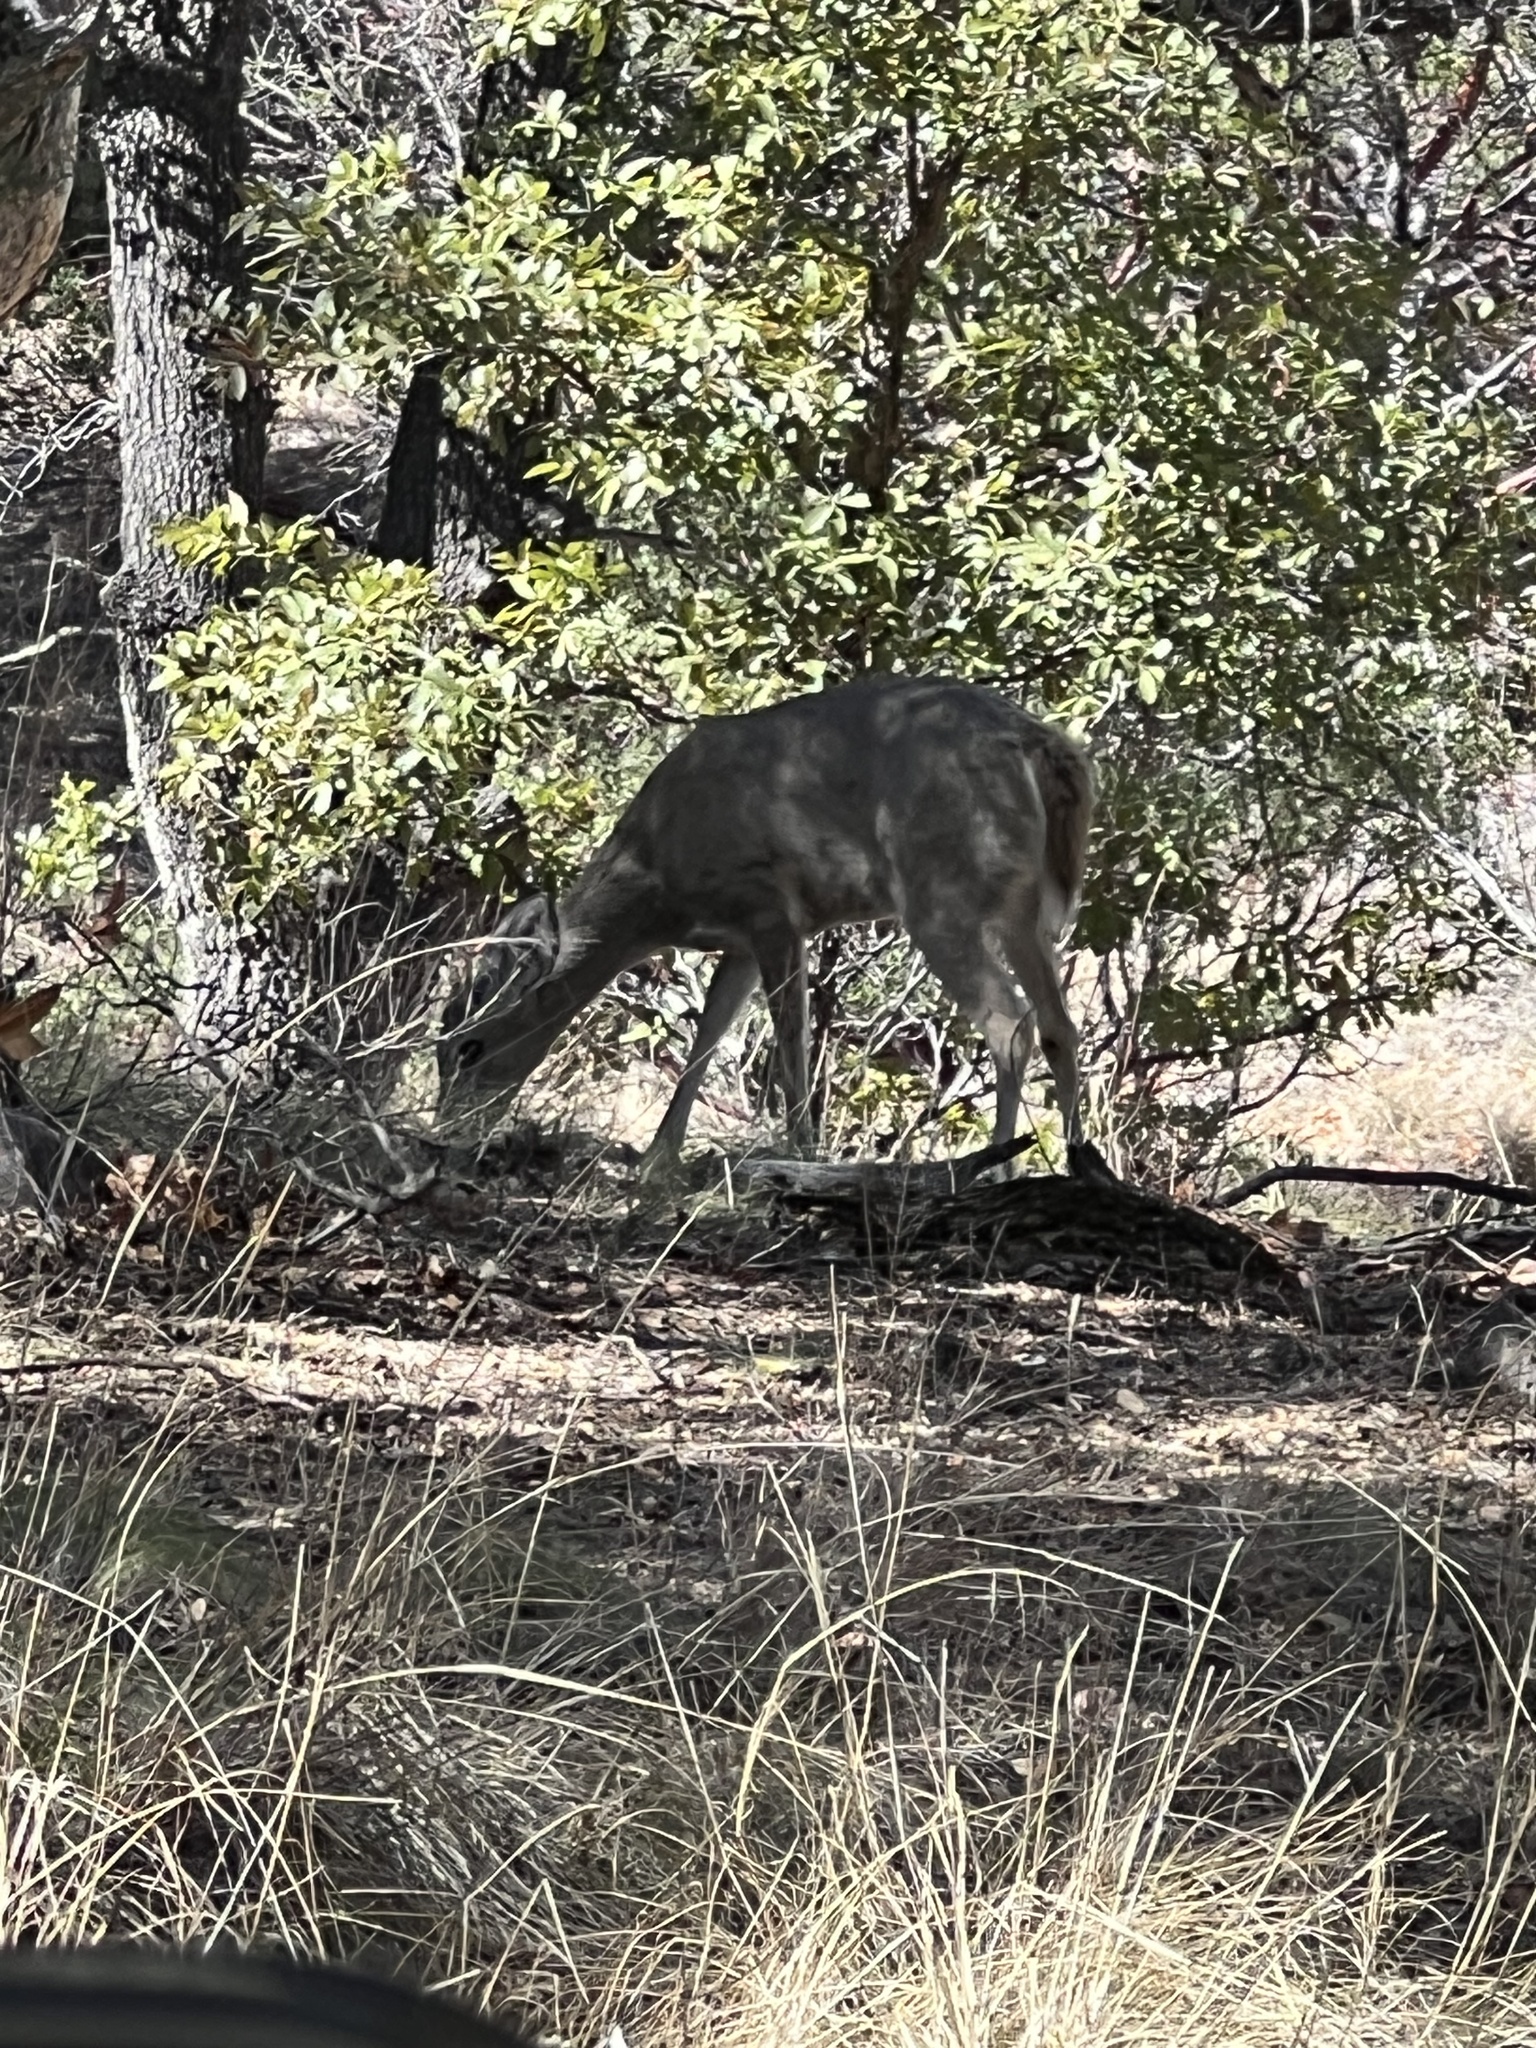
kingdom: Animalia
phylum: Chordata
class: Mammalia
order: Artiodactyla
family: Cervidae
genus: Odocoileus
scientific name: Odocoileus virginianus
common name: White-tailed deer
